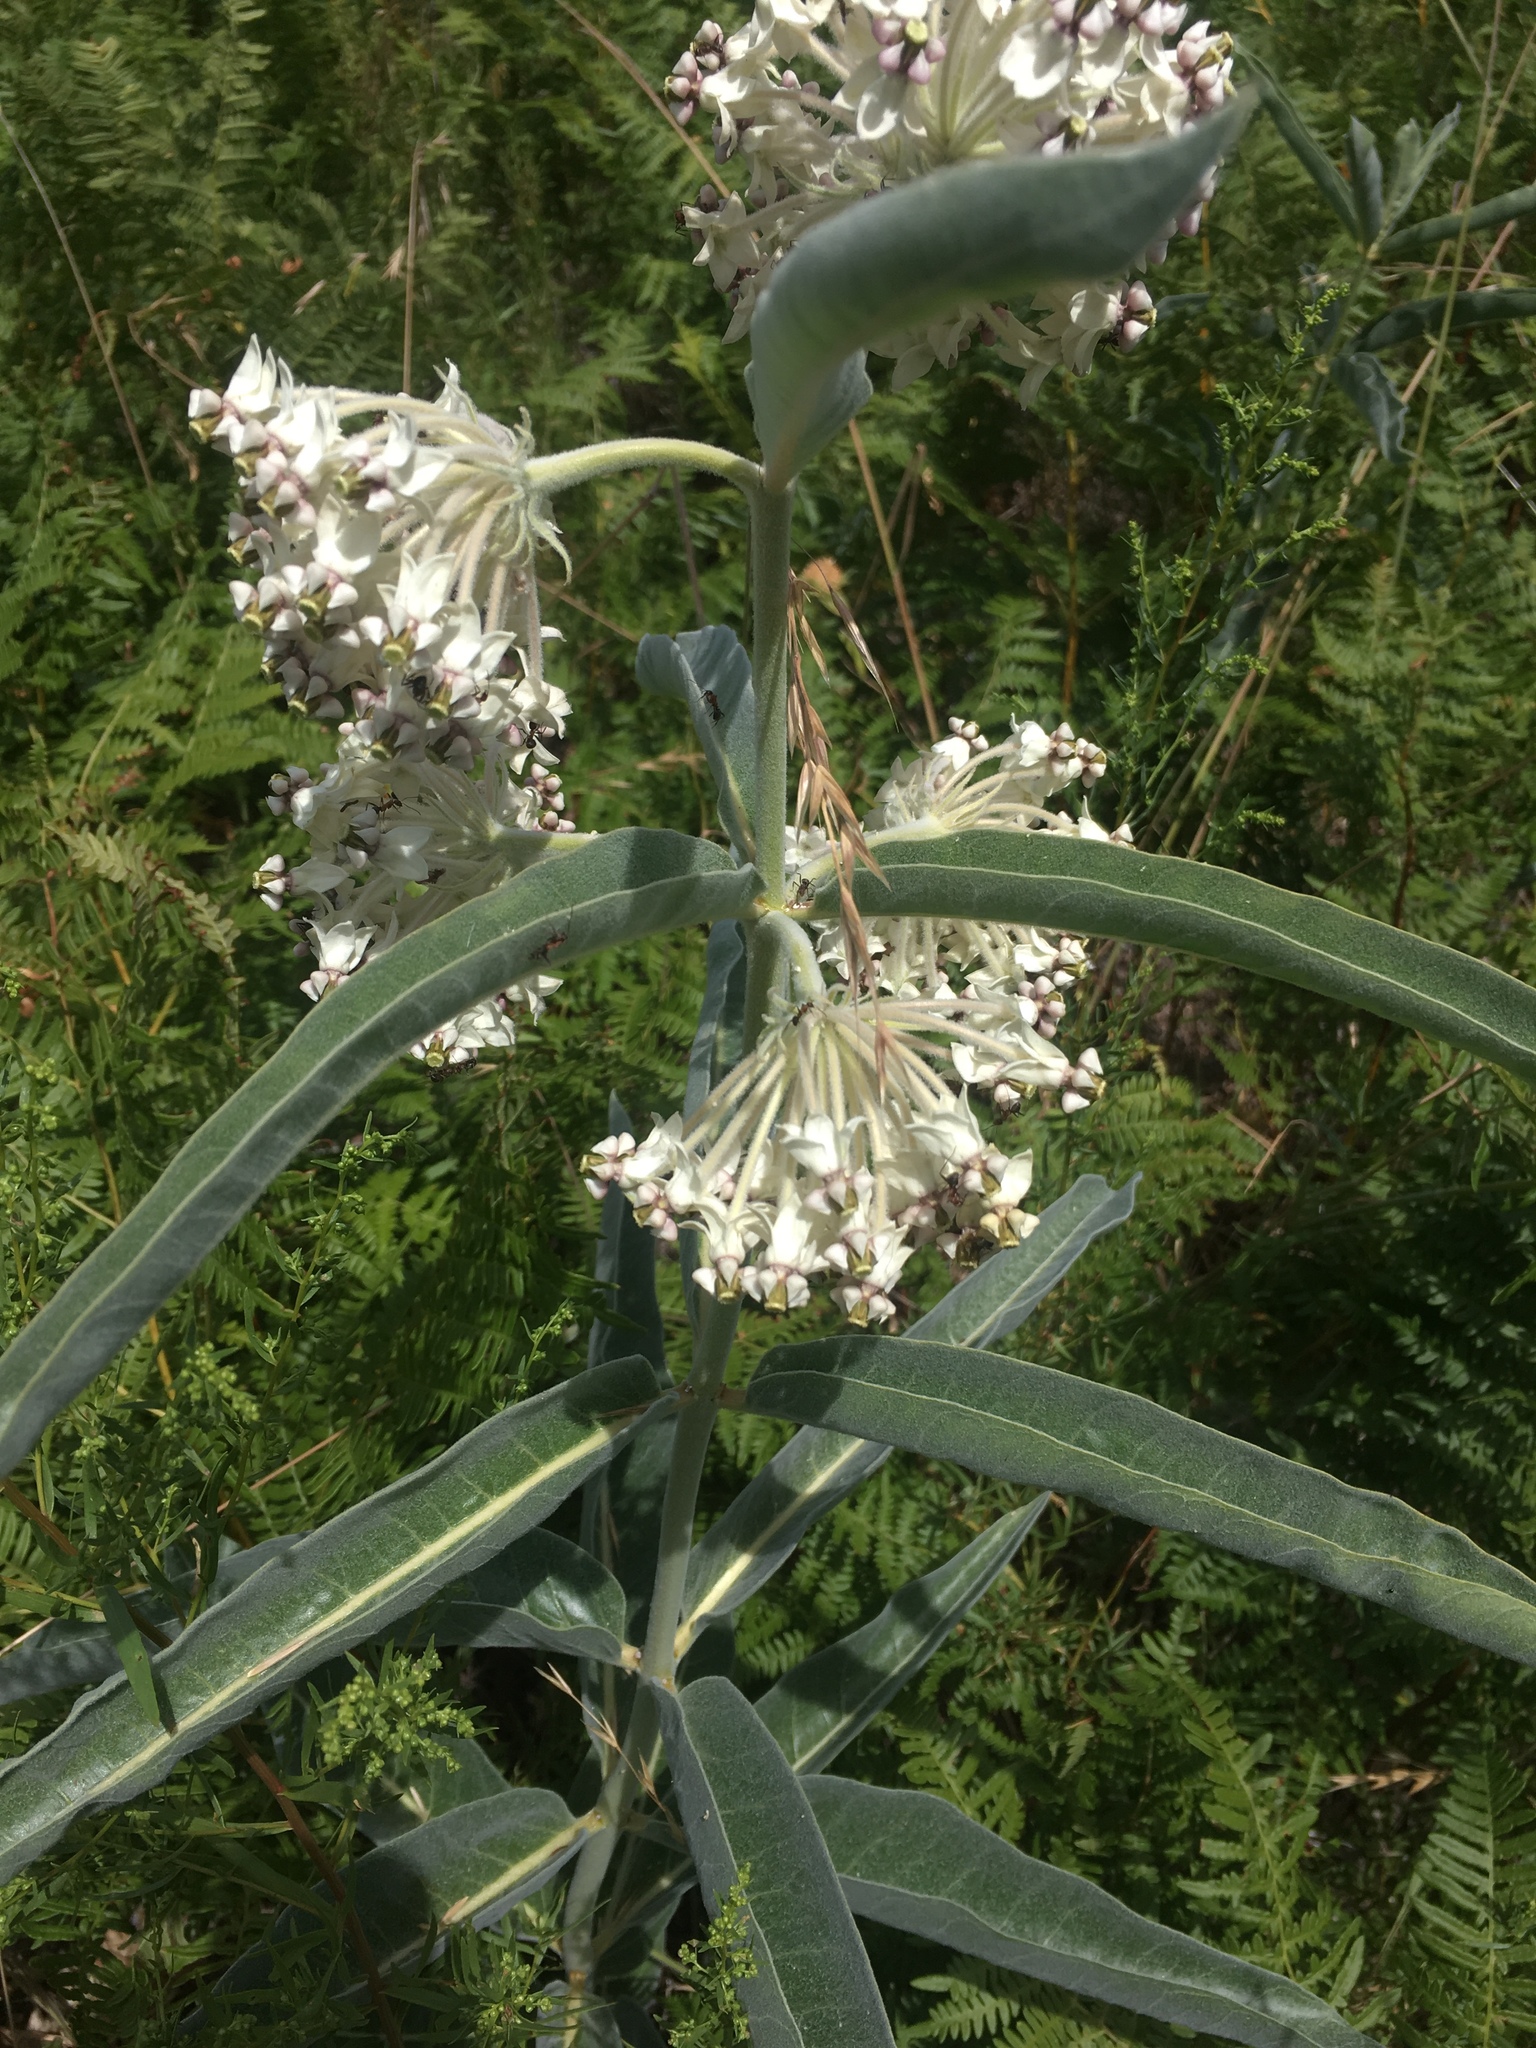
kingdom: Plantae
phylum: Tracheophyta
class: Magnoliopsida
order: Gentianales
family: Apocynaceae
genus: Asclepias
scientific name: Asclepias eriocarpa
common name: Indian milkweed
